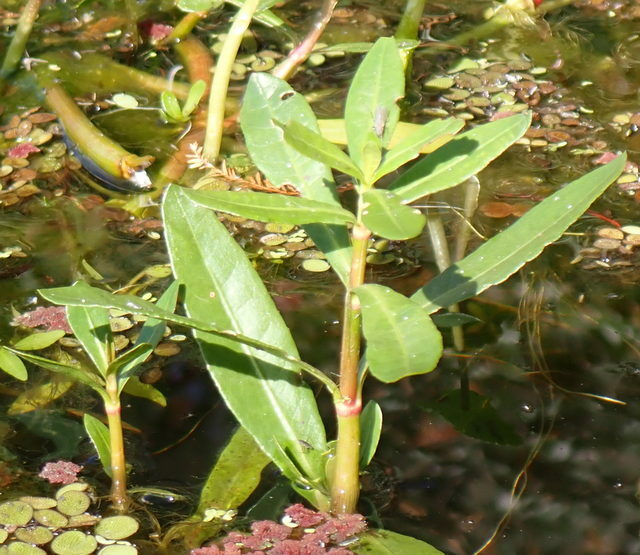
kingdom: Plantae
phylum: Tracheophyta
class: Magnoliopsida
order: Caryophyllales
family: Amaranthaceae
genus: Alternanthera
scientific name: Alternanthera philoxeroides
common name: Alligatorweed
